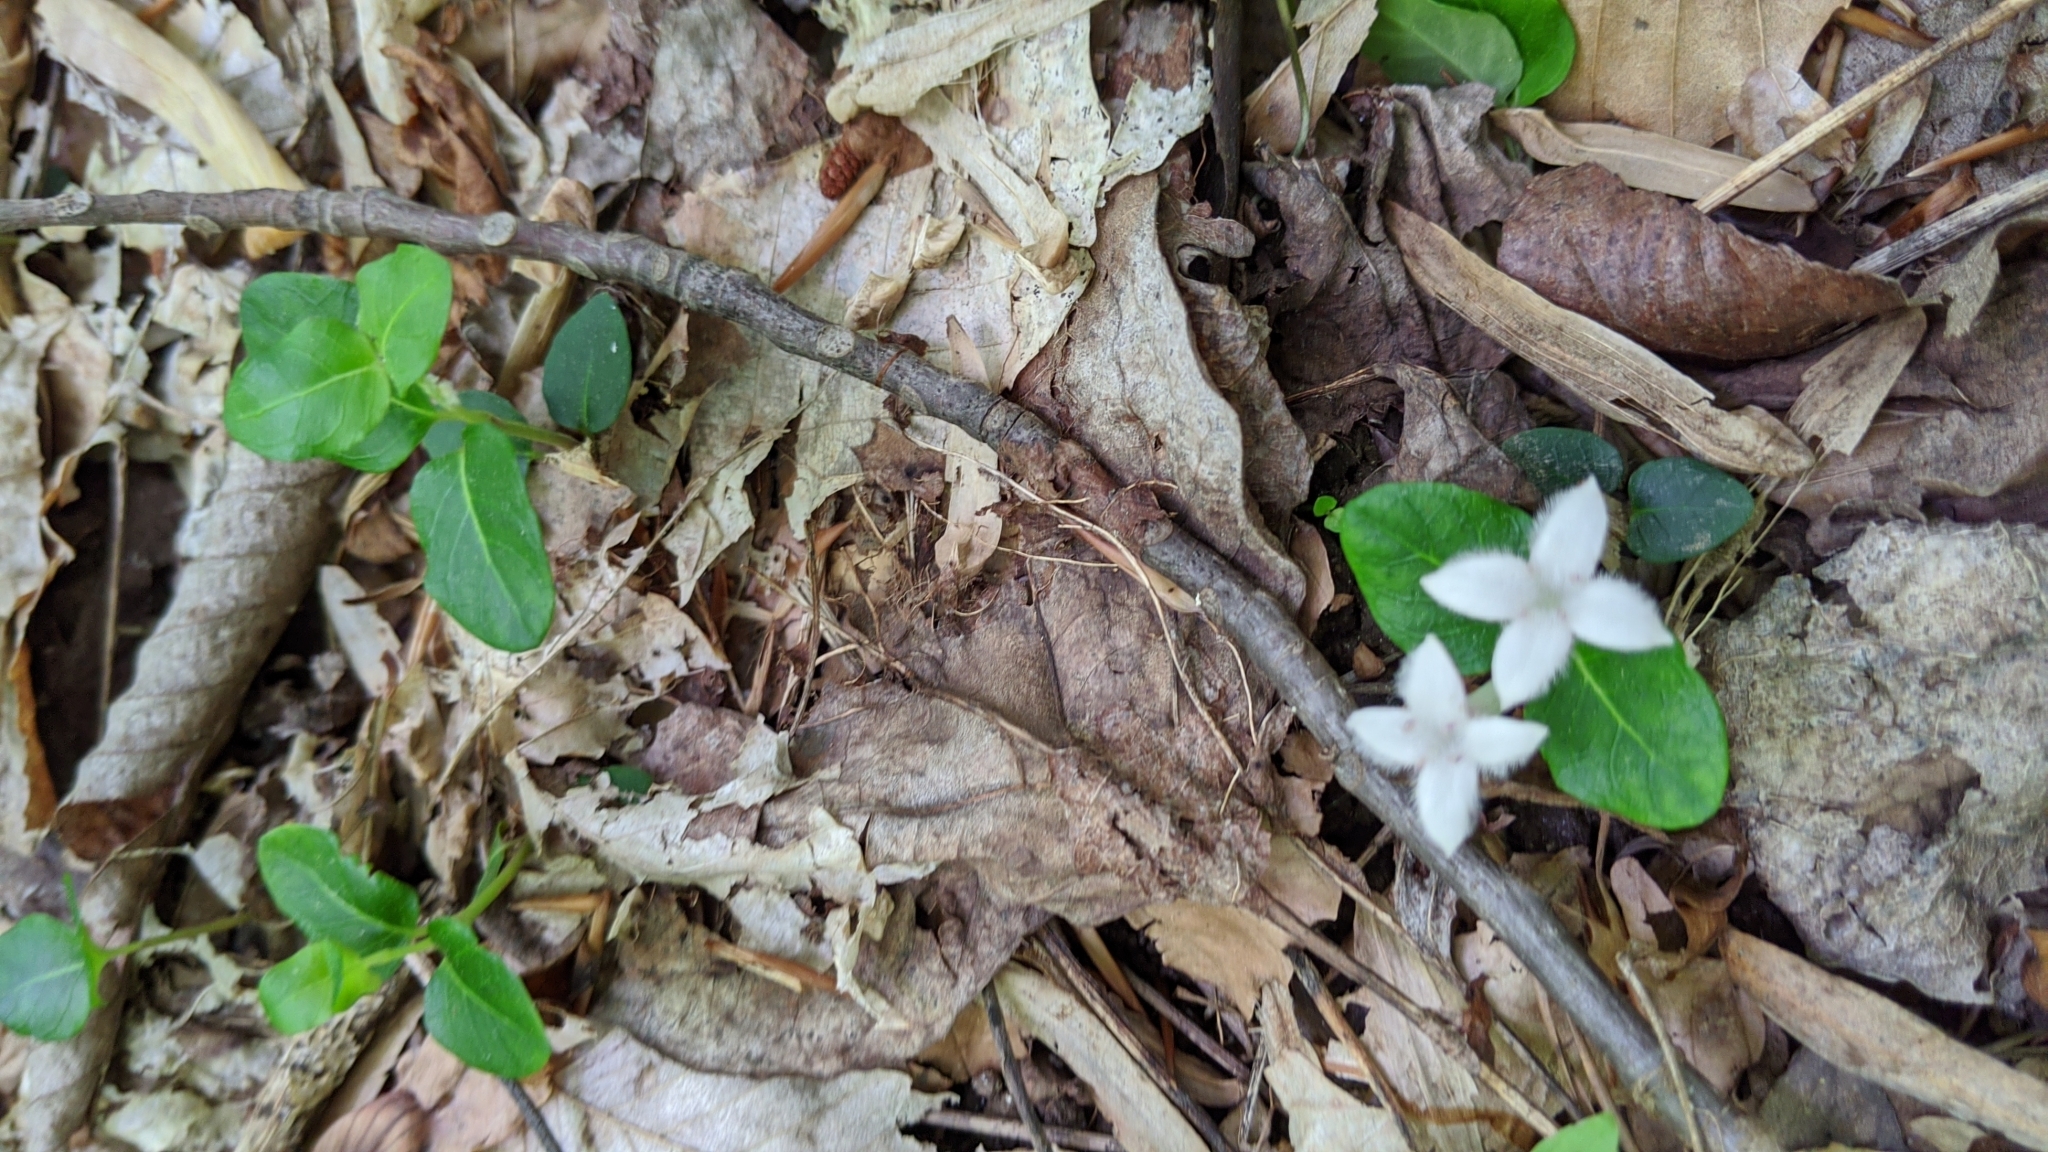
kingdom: Plantae
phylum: Tracheophyta
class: Magnoliopsida
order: Gentianales
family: Rubiaceae
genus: Mitchella
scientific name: Mitchella repens
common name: Partridge-berry
